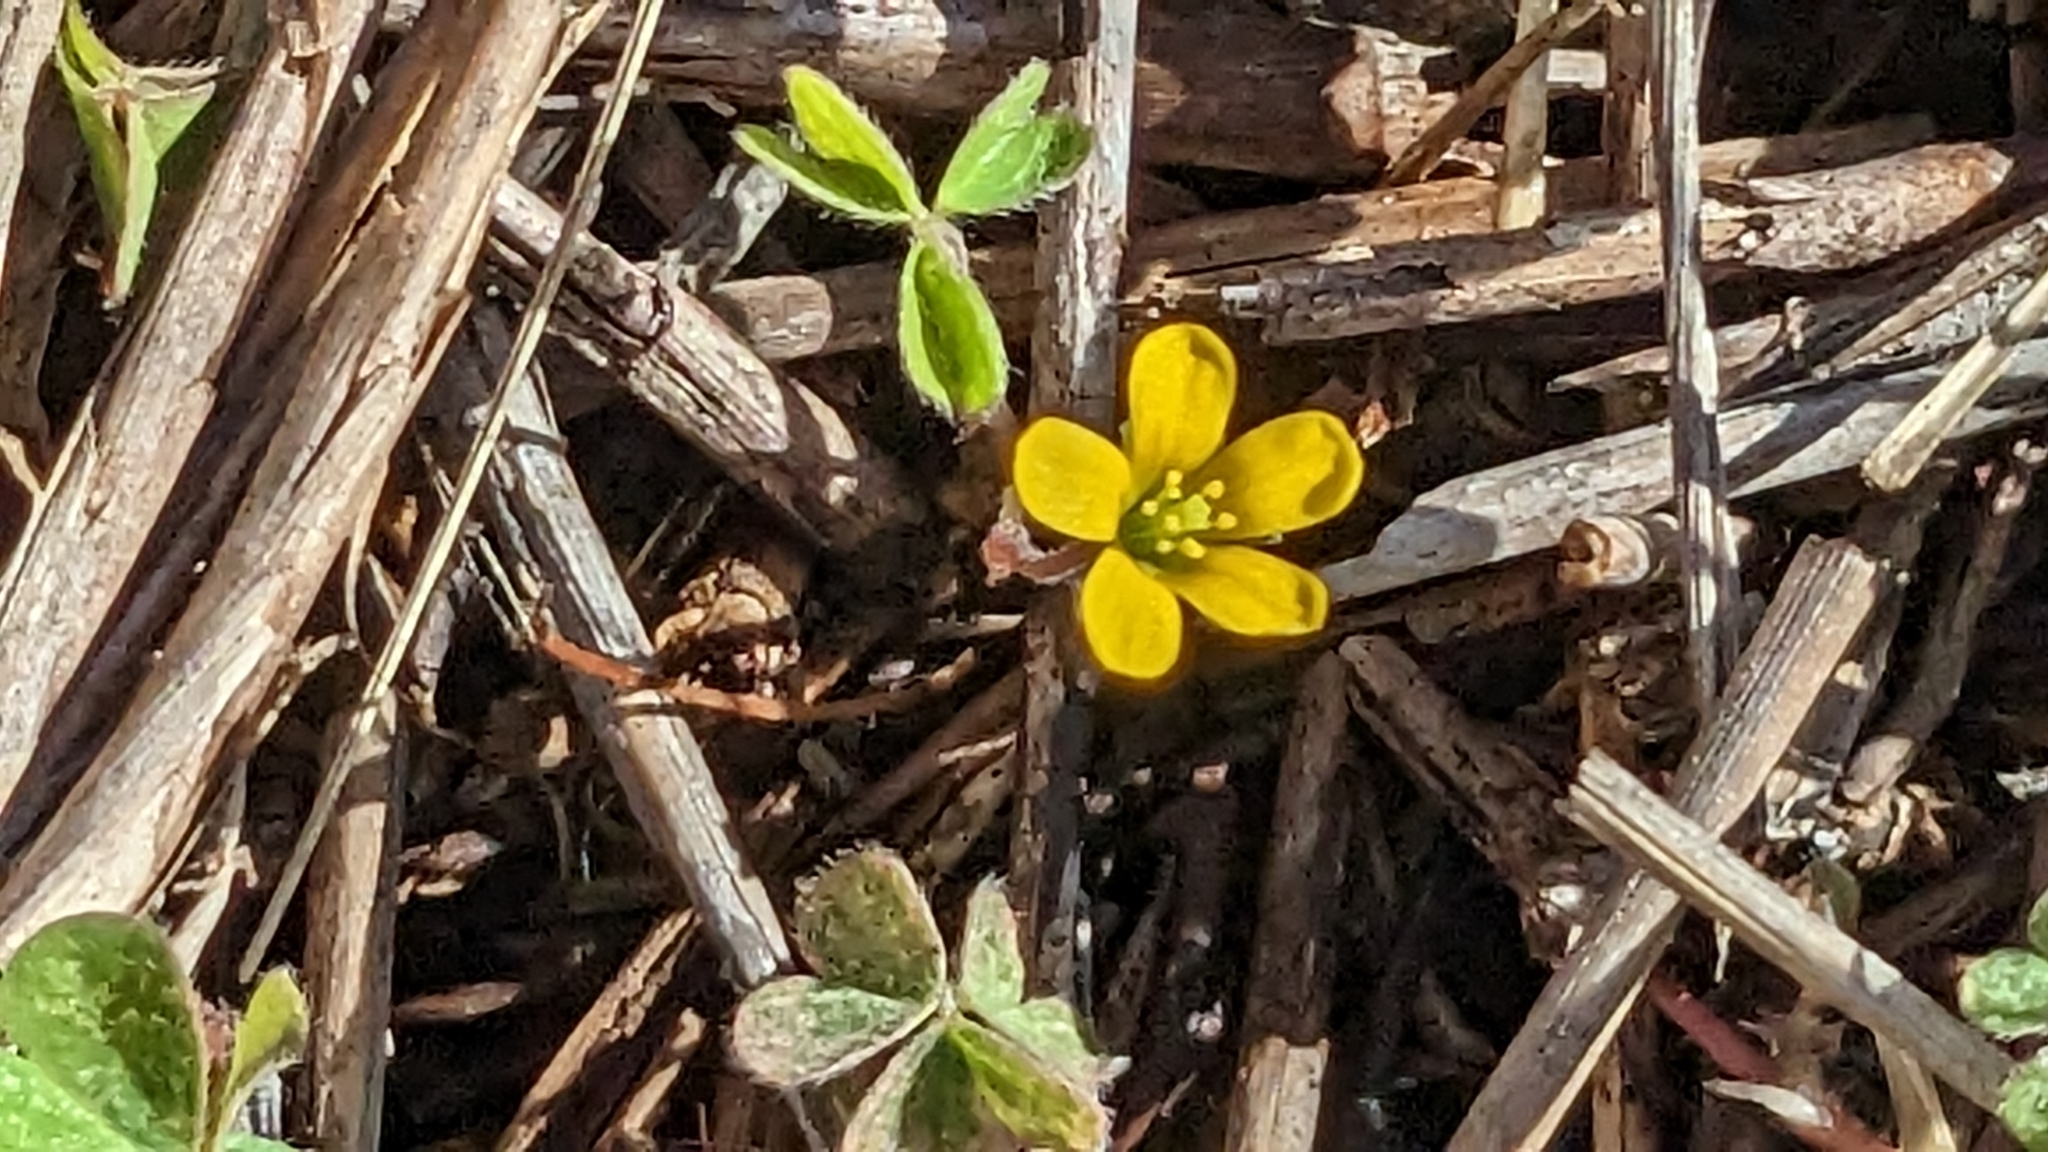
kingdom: Plantae
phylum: Tracheophyta
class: Magnoliopsida
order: Oxalidales
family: Oxalidaceae
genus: Oxalis
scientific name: Oxalis corniculata
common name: Procumbent yellow-sorrel
